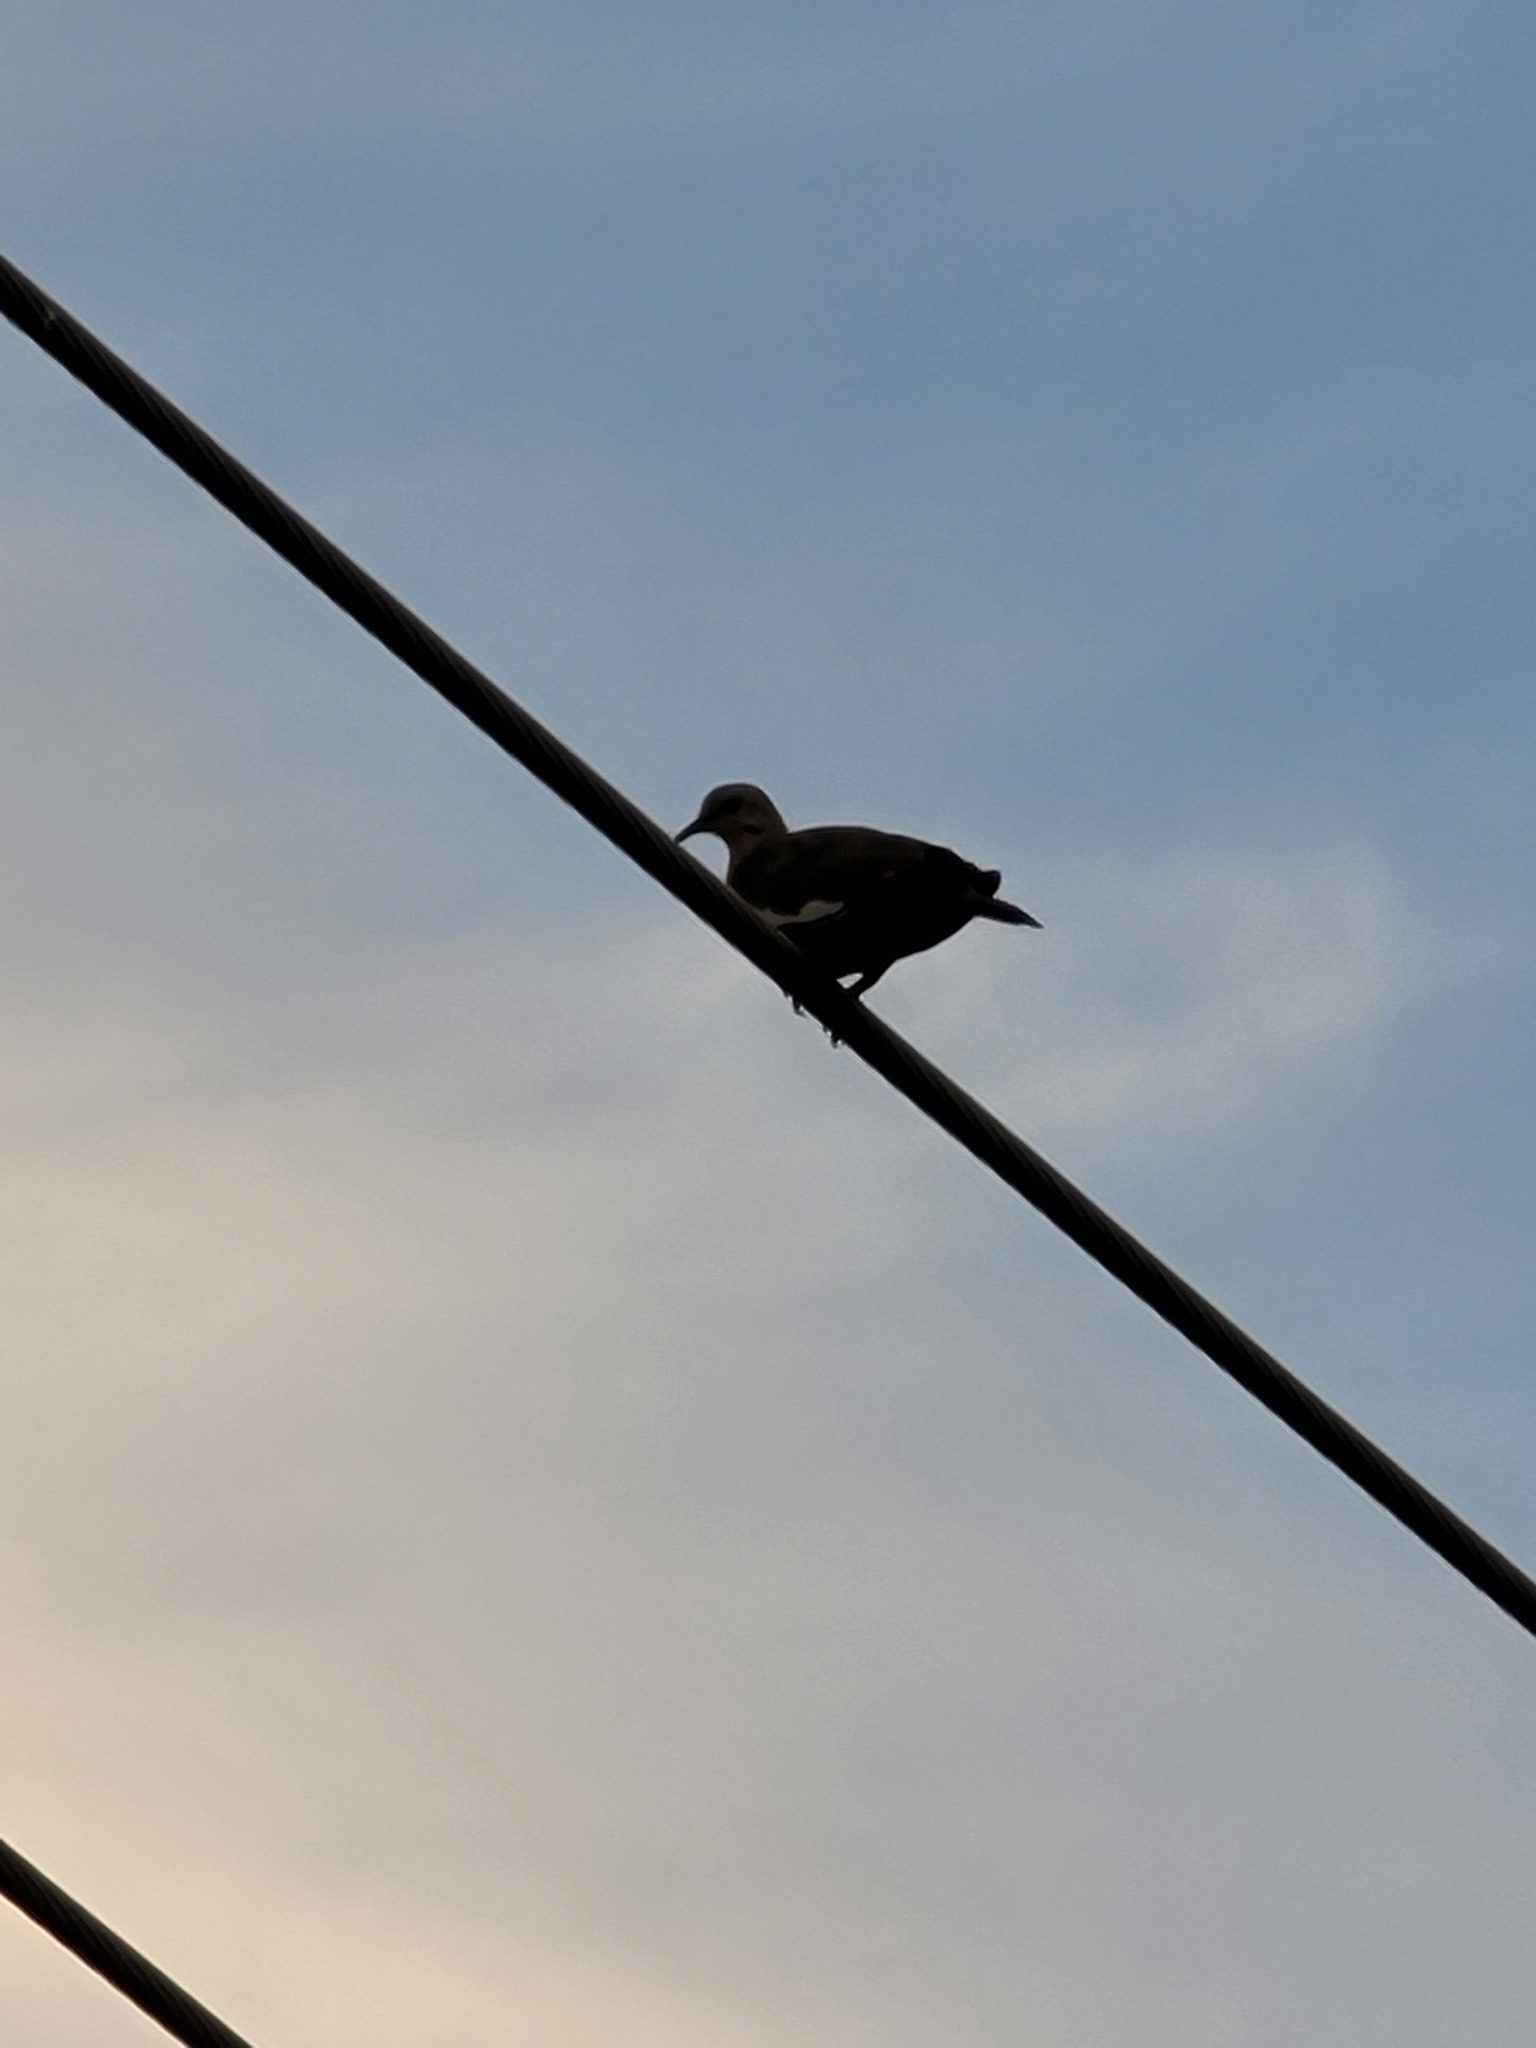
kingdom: Animalia
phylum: Chordata
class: Aves
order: Columbiformes
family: Columbidae
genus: Zenaida
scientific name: Zenaida asiatica
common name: White-winged dove
